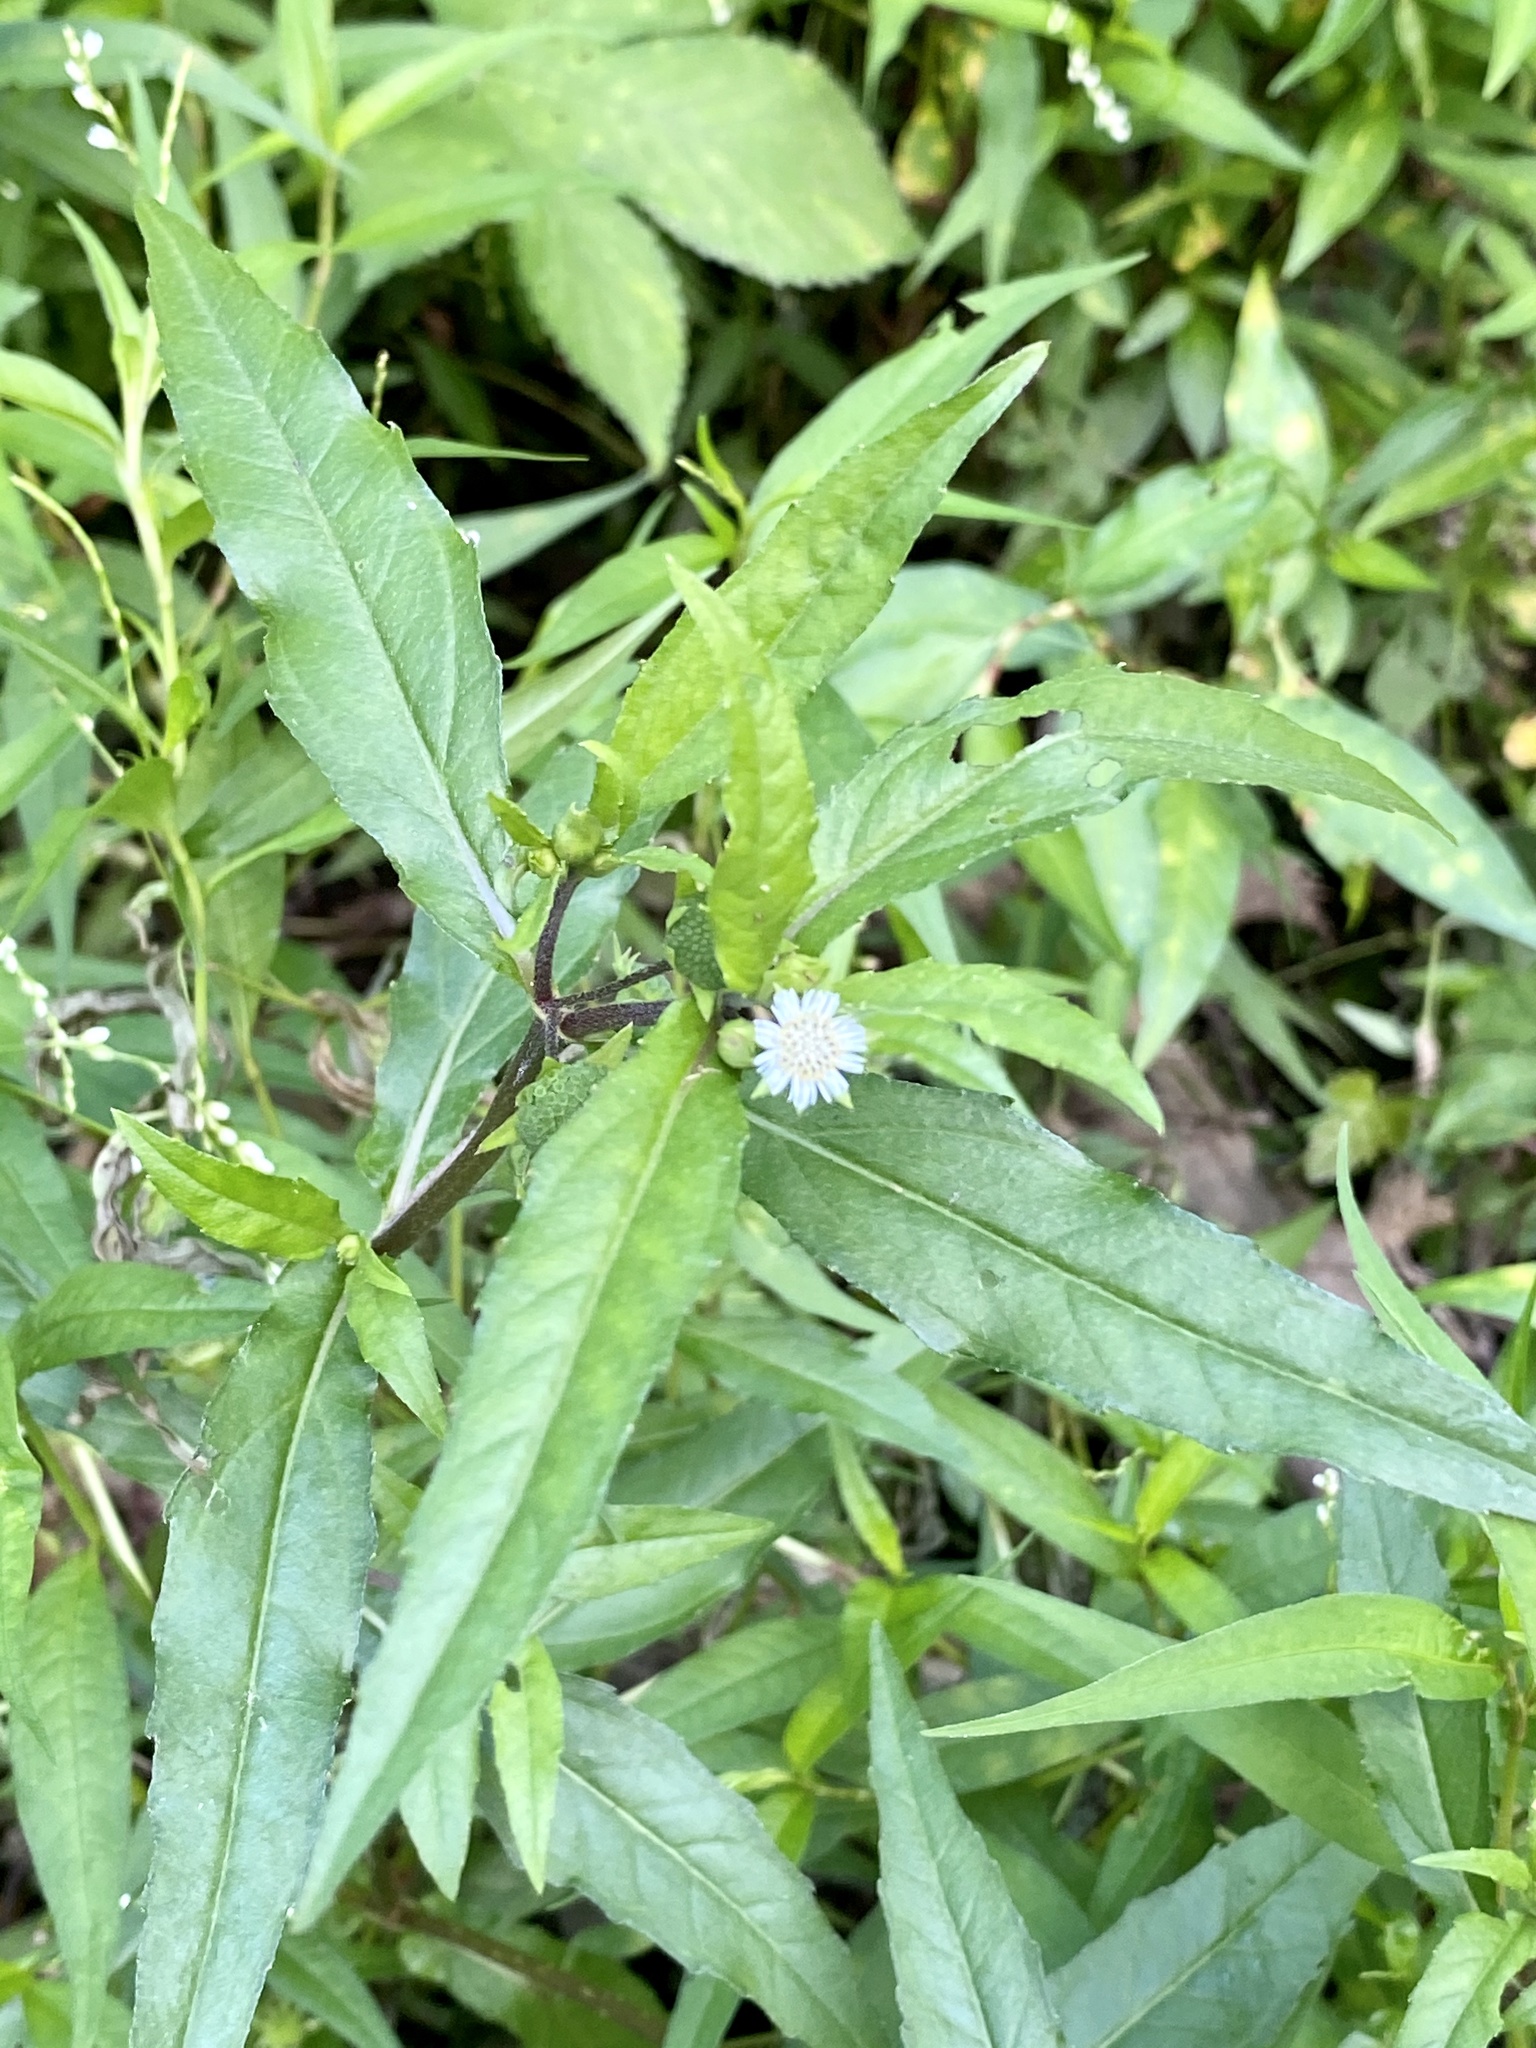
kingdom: Plantae
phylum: Tracheophyta
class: Magnoliopsida
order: Asterales
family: Asteraceae
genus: Eclipta
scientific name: Eclipta prostrata
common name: False daisy
